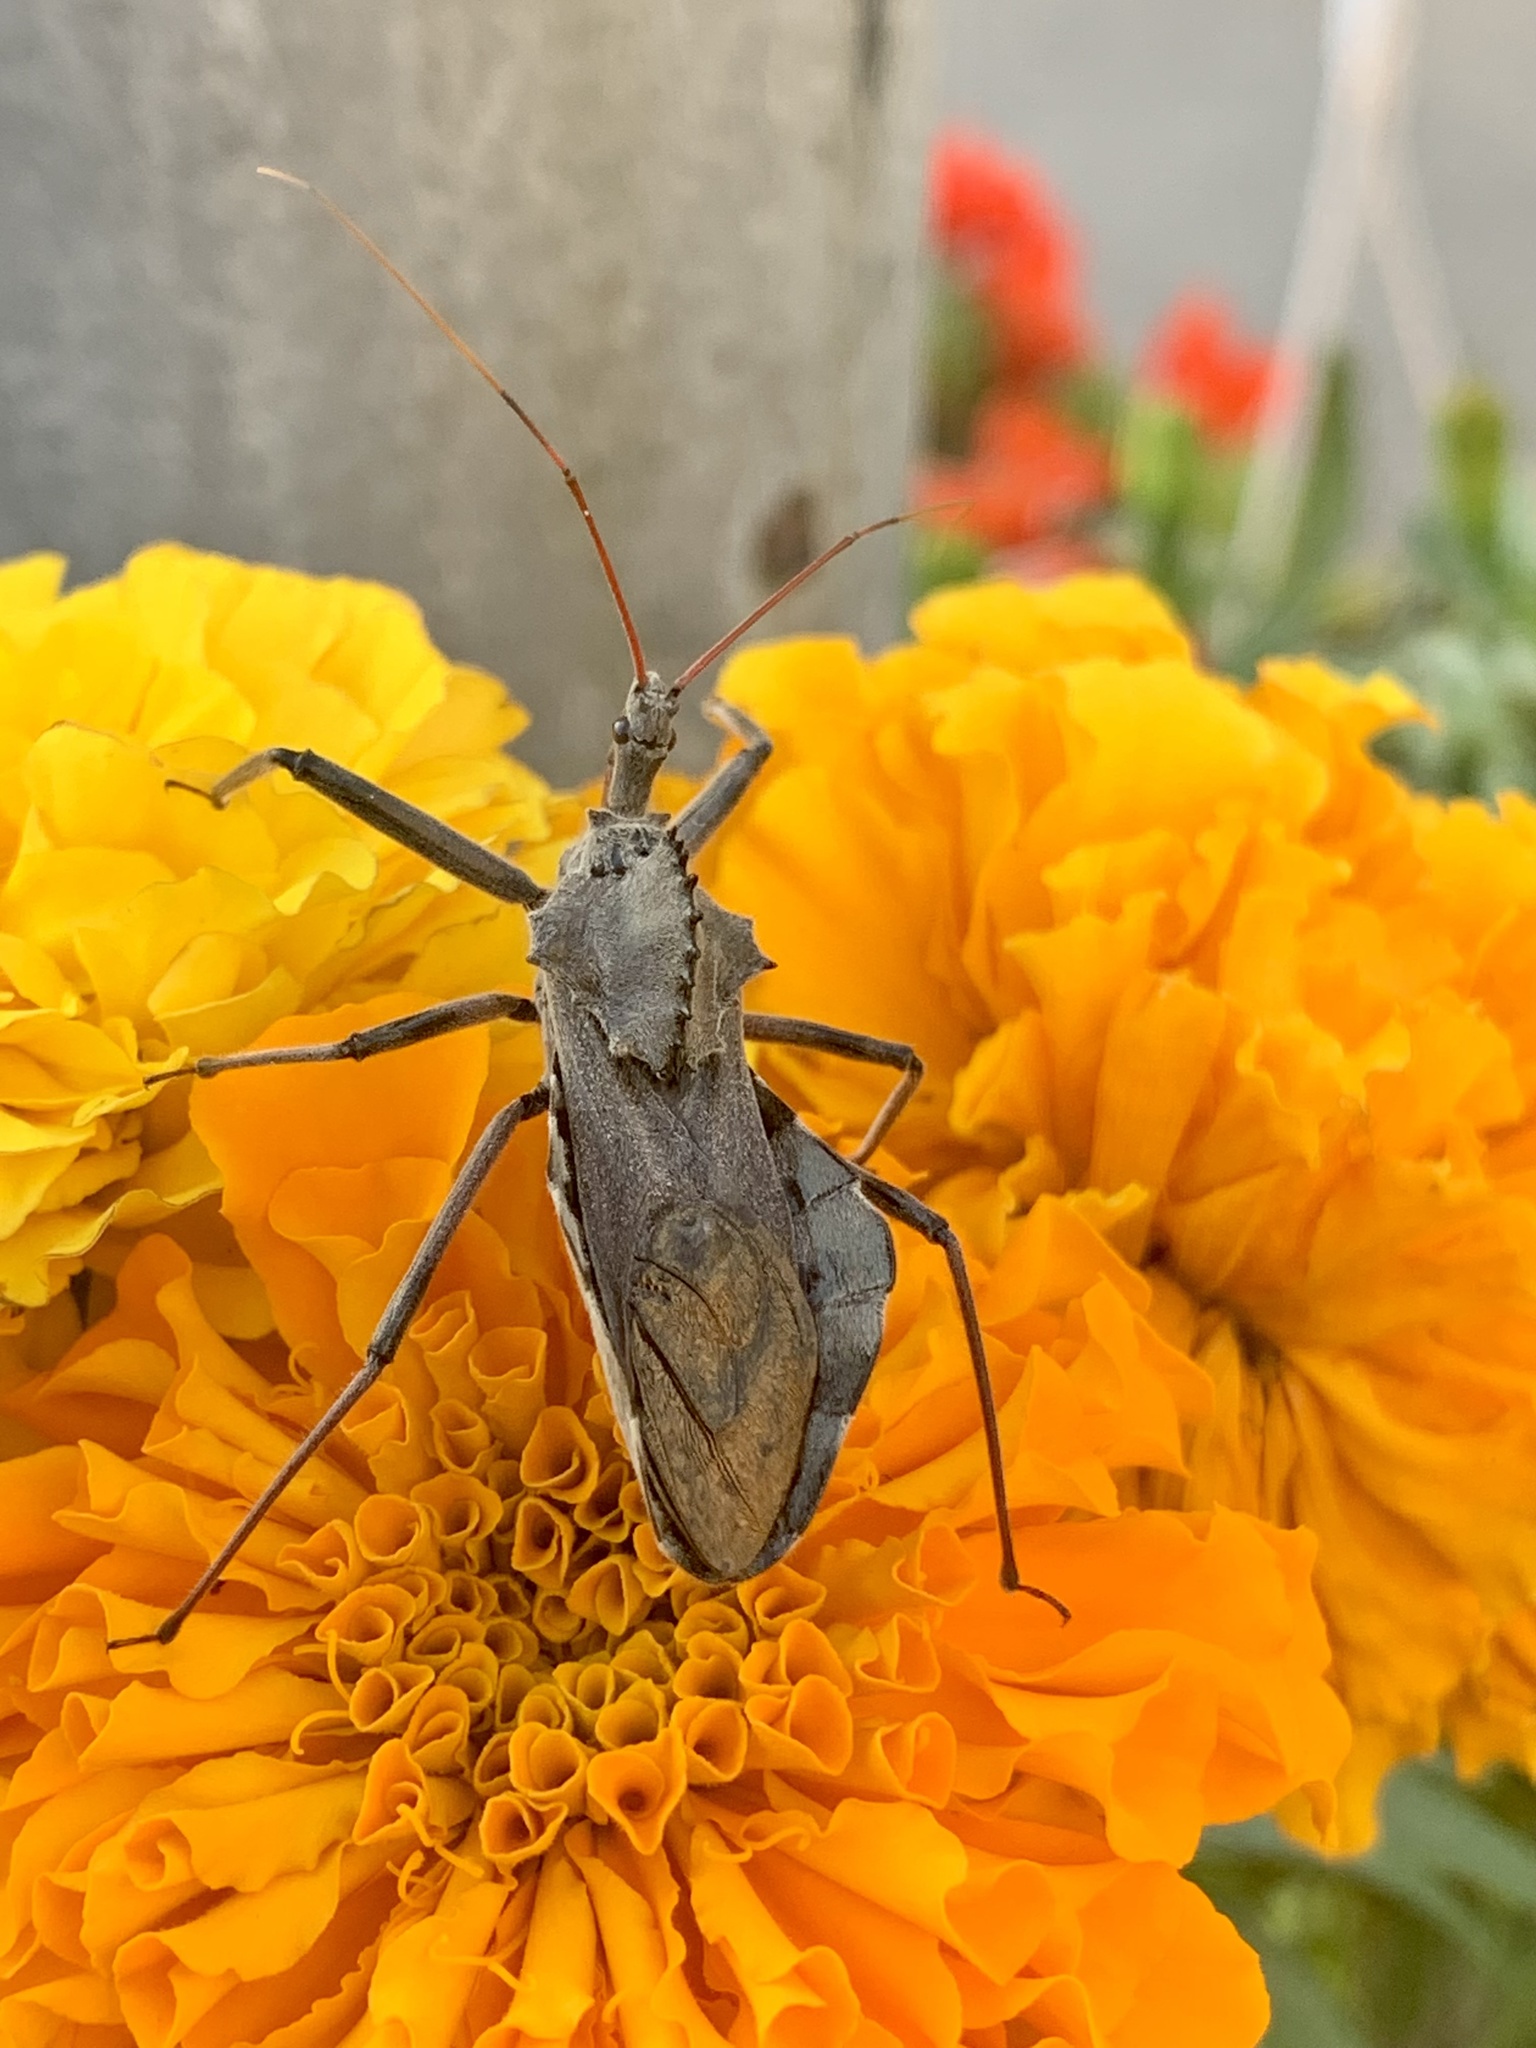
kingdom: Animalia
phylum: Arthropoda
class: Insecta
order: Hemiptera
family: Reduviidae
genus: Arilus
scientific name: Arilus cristatus
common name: North american wheel bug
